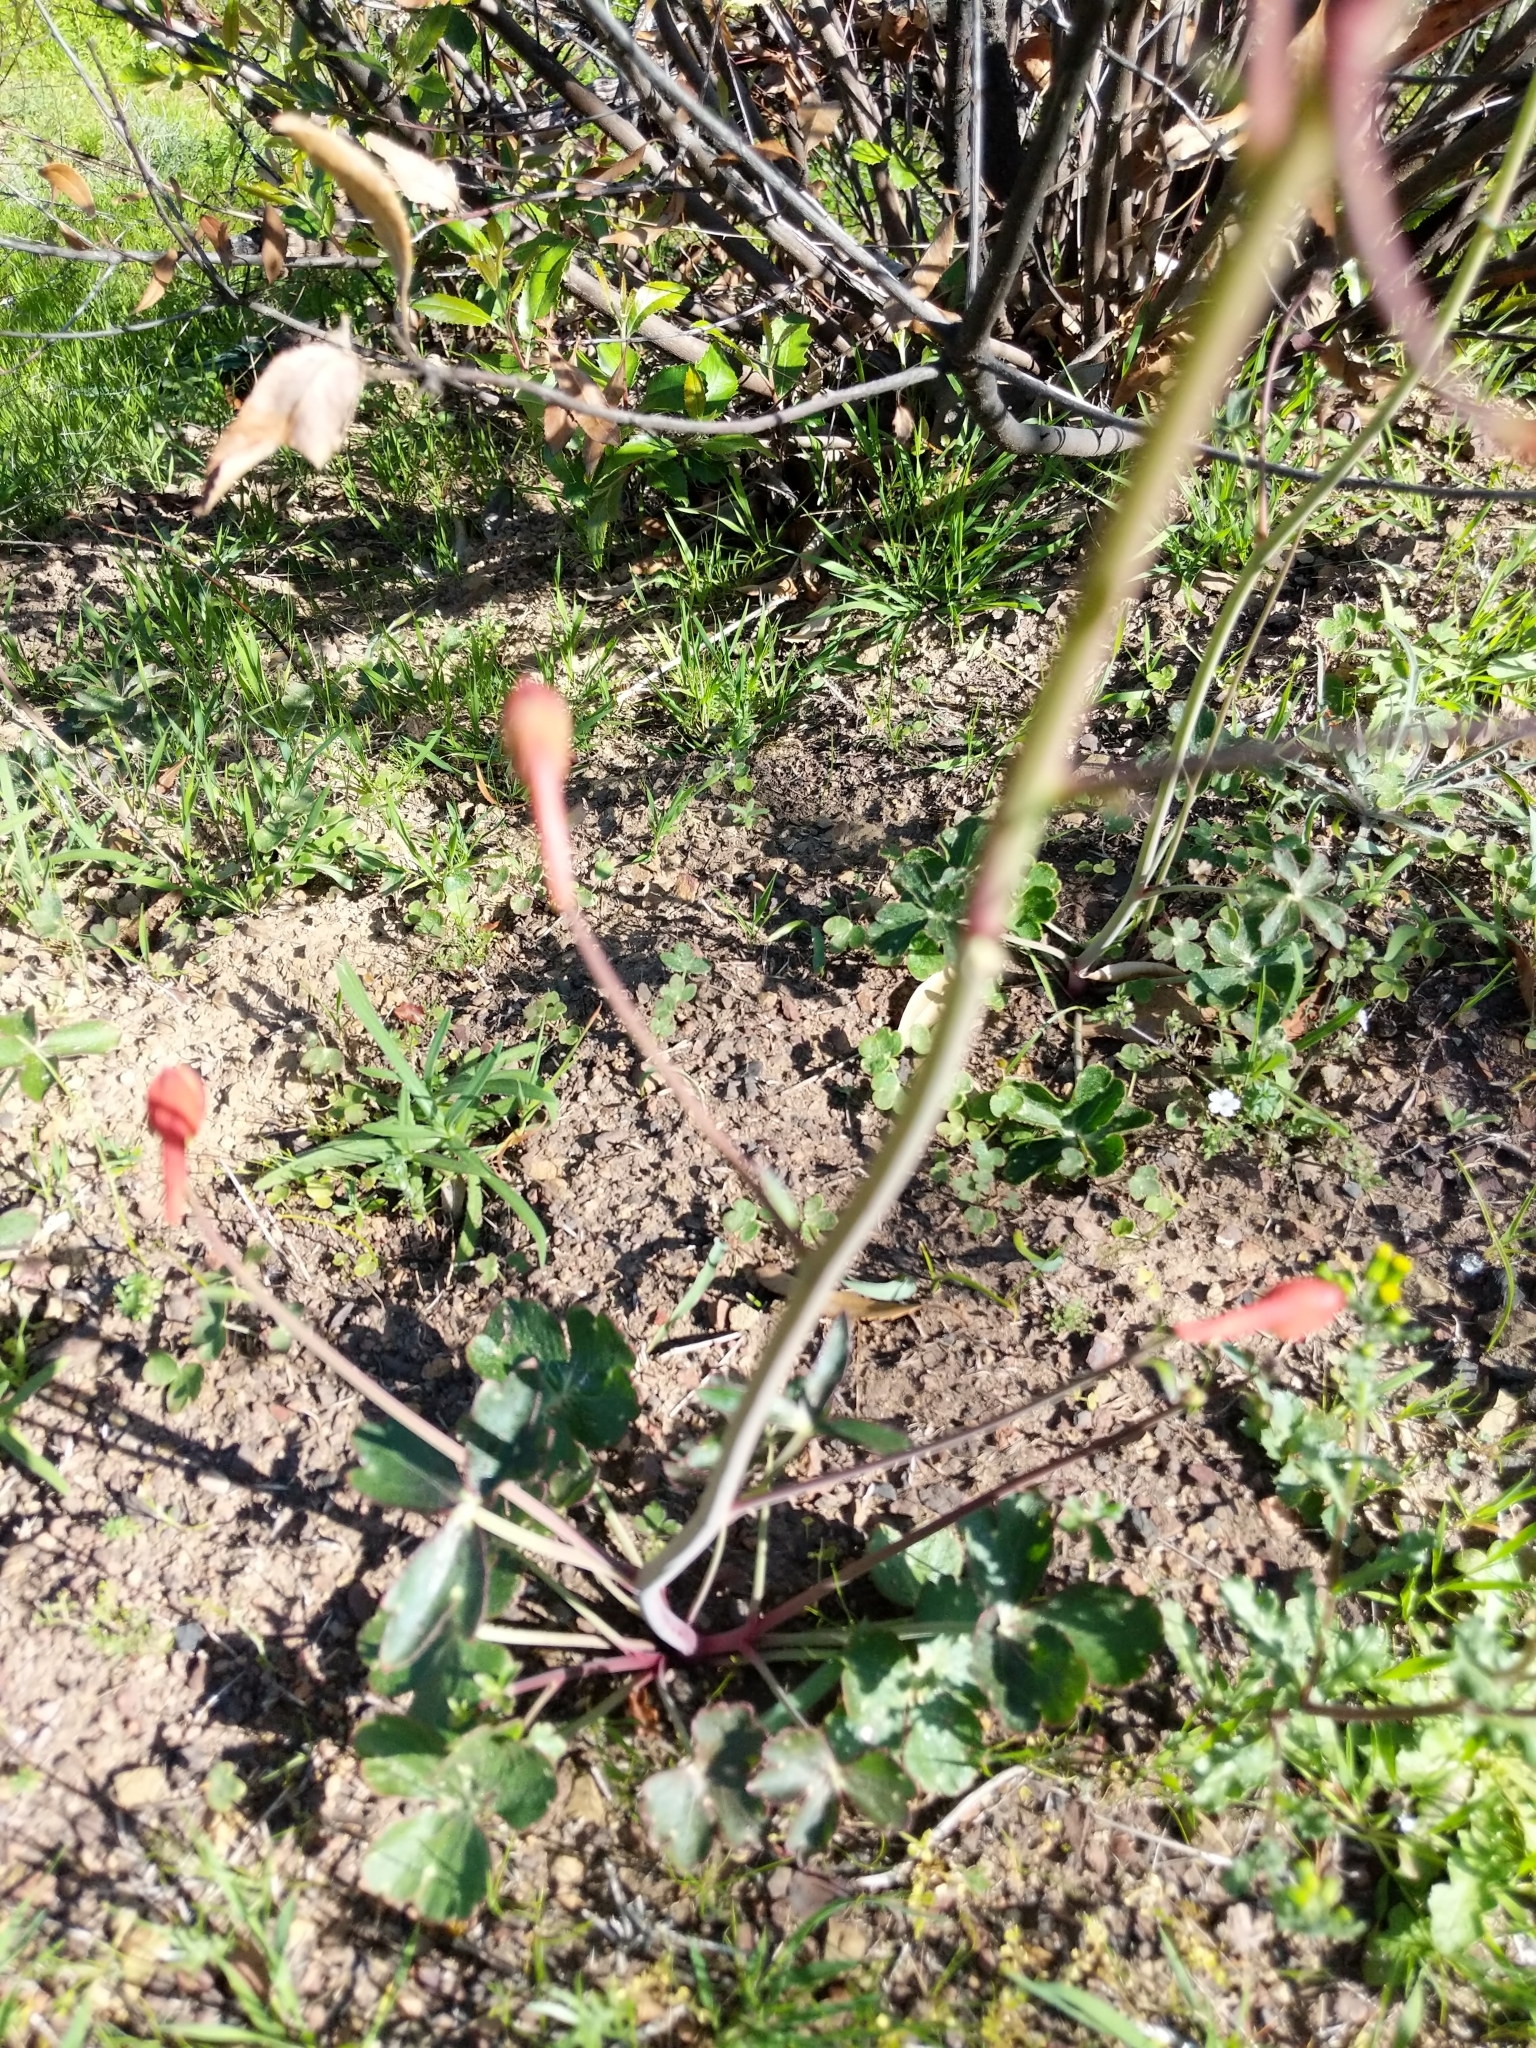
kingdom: Plantae
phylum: Tracheophyta
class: Magnoliopsida
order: Ranunculales
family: Ranunculaceae
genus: Delphinium
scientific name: Delphinium nudicaule
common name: Red larkspur
